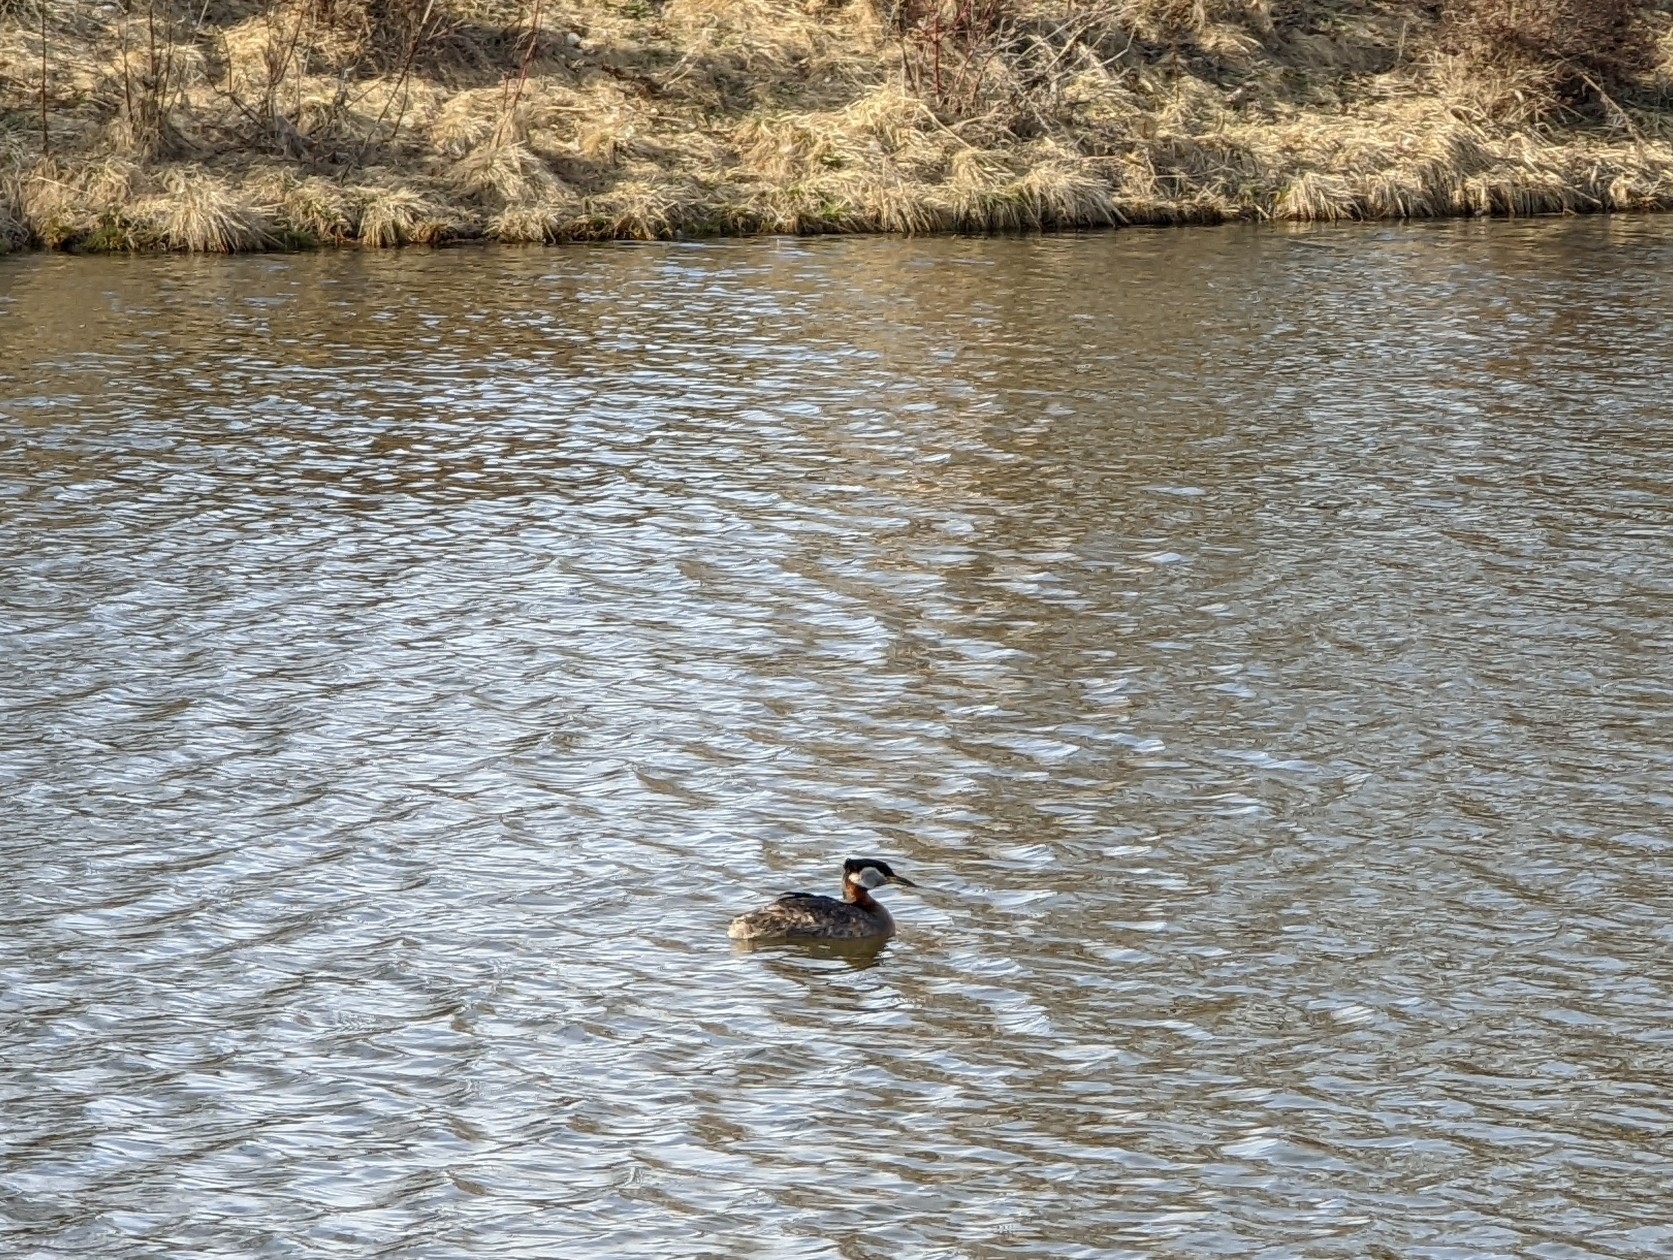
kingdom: Animalia
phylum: Chordata
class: Aves
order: Podicipediformes
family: Podicipedidae
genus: Podiceps
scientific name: Podiceps grisegena
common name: Red-necked grebe
